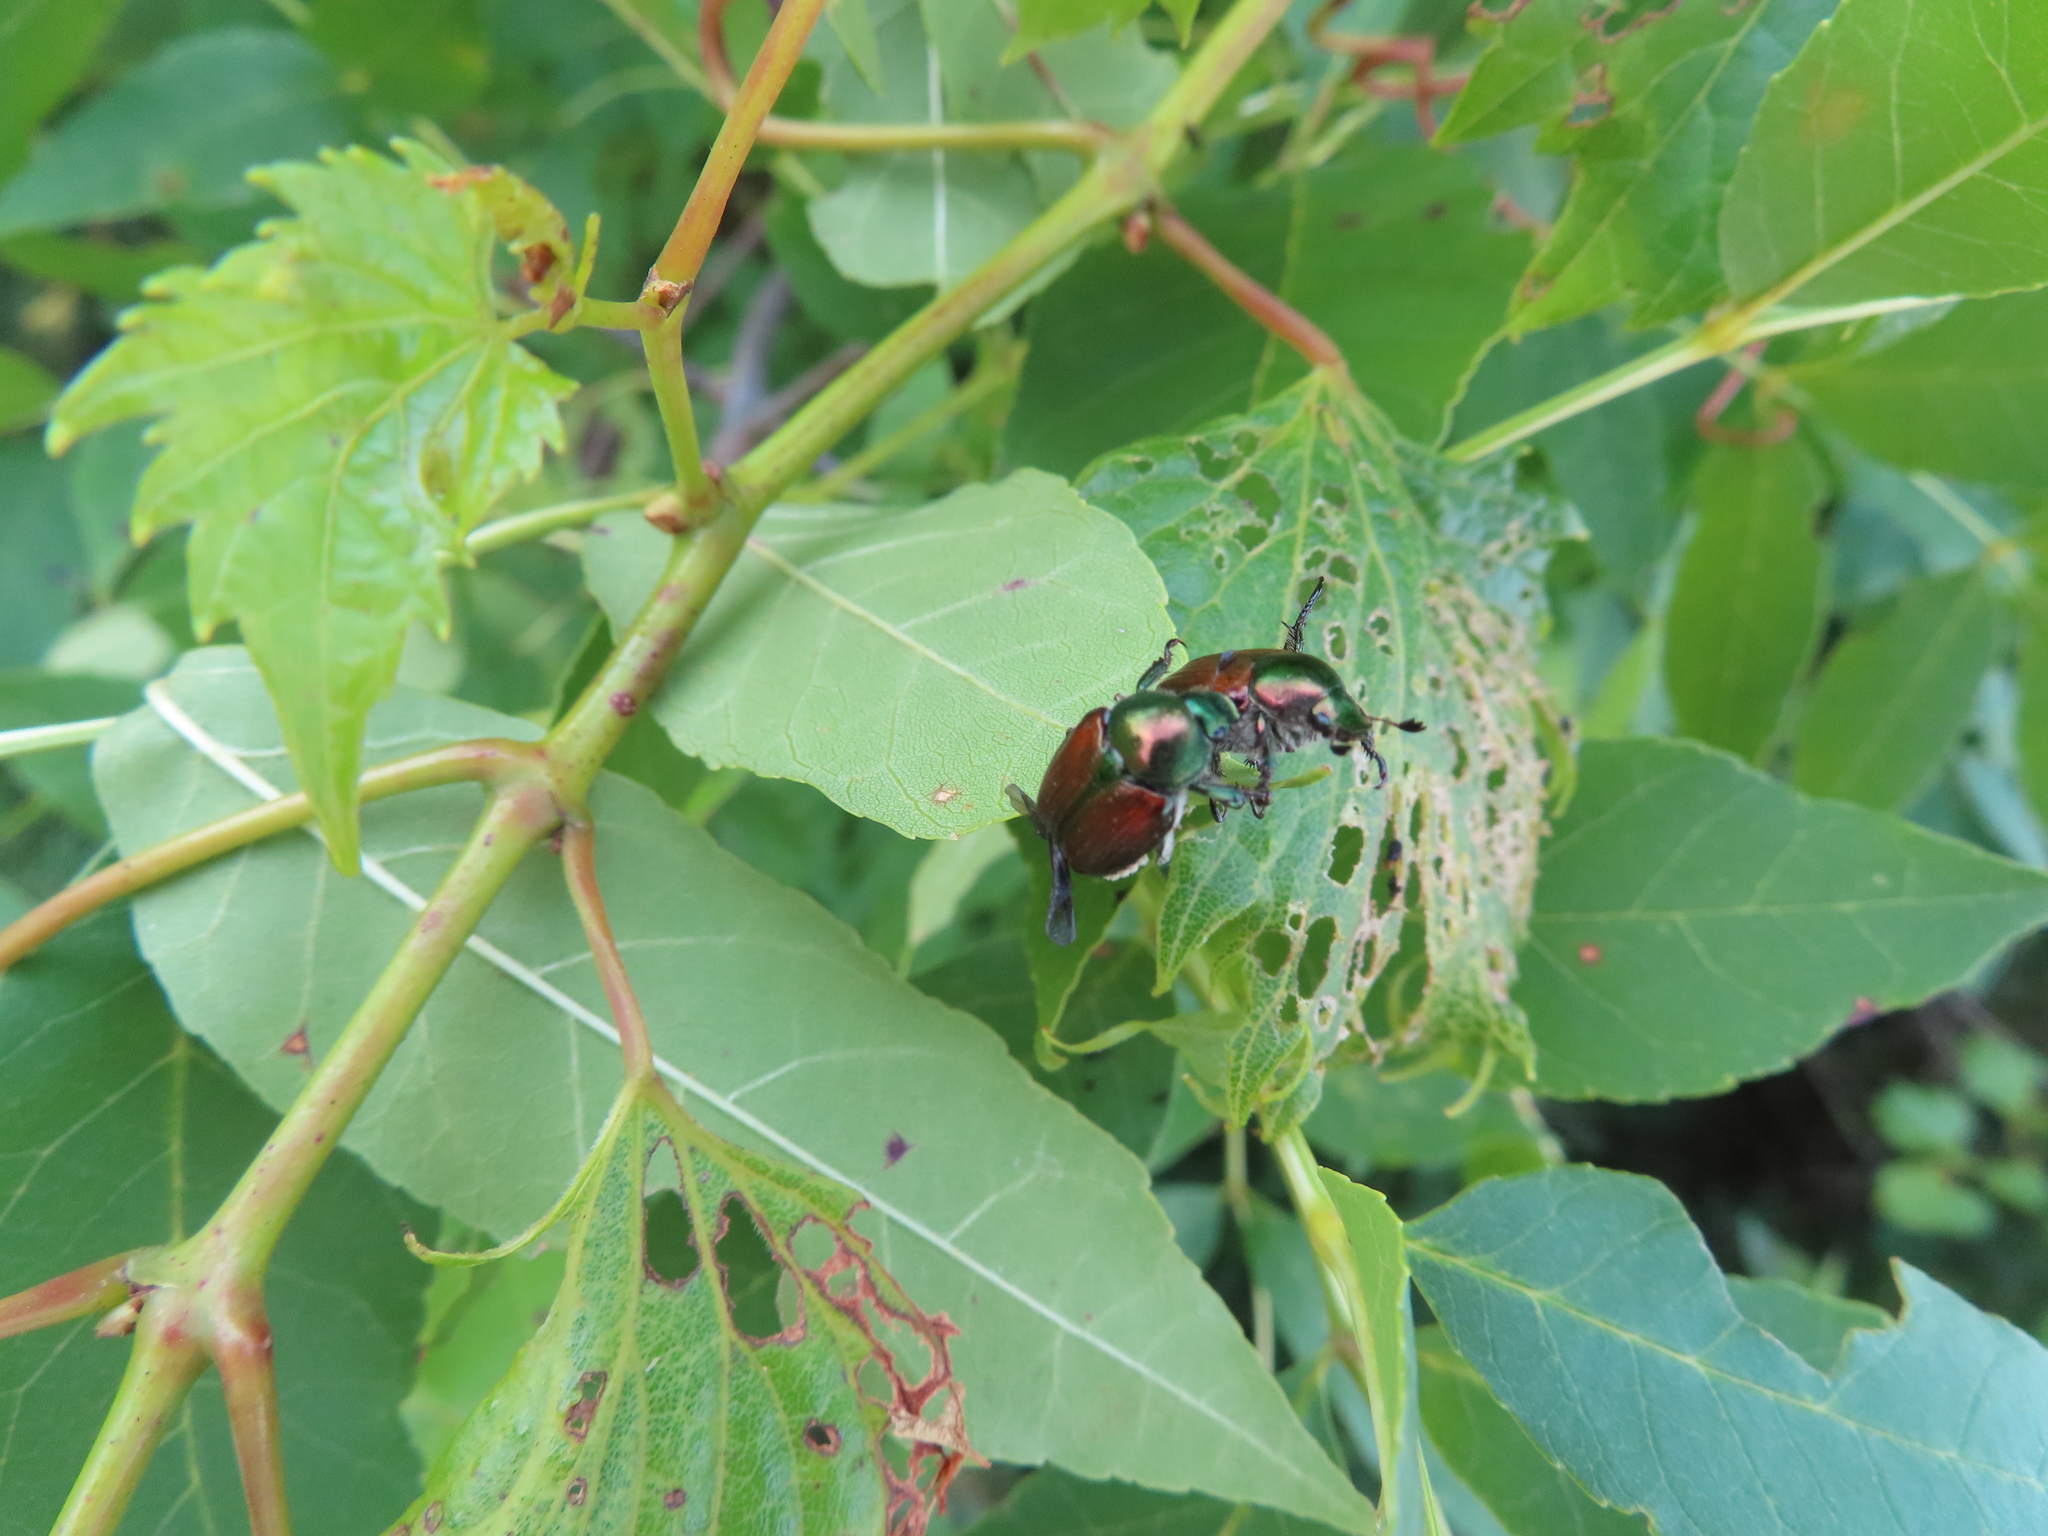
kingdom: Animalia
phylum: Arthropoda
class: Insecta
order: Coleoptera
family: Scarabaeidae
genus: Popillia
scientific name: Popillia japonica
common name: Japanese beetle
